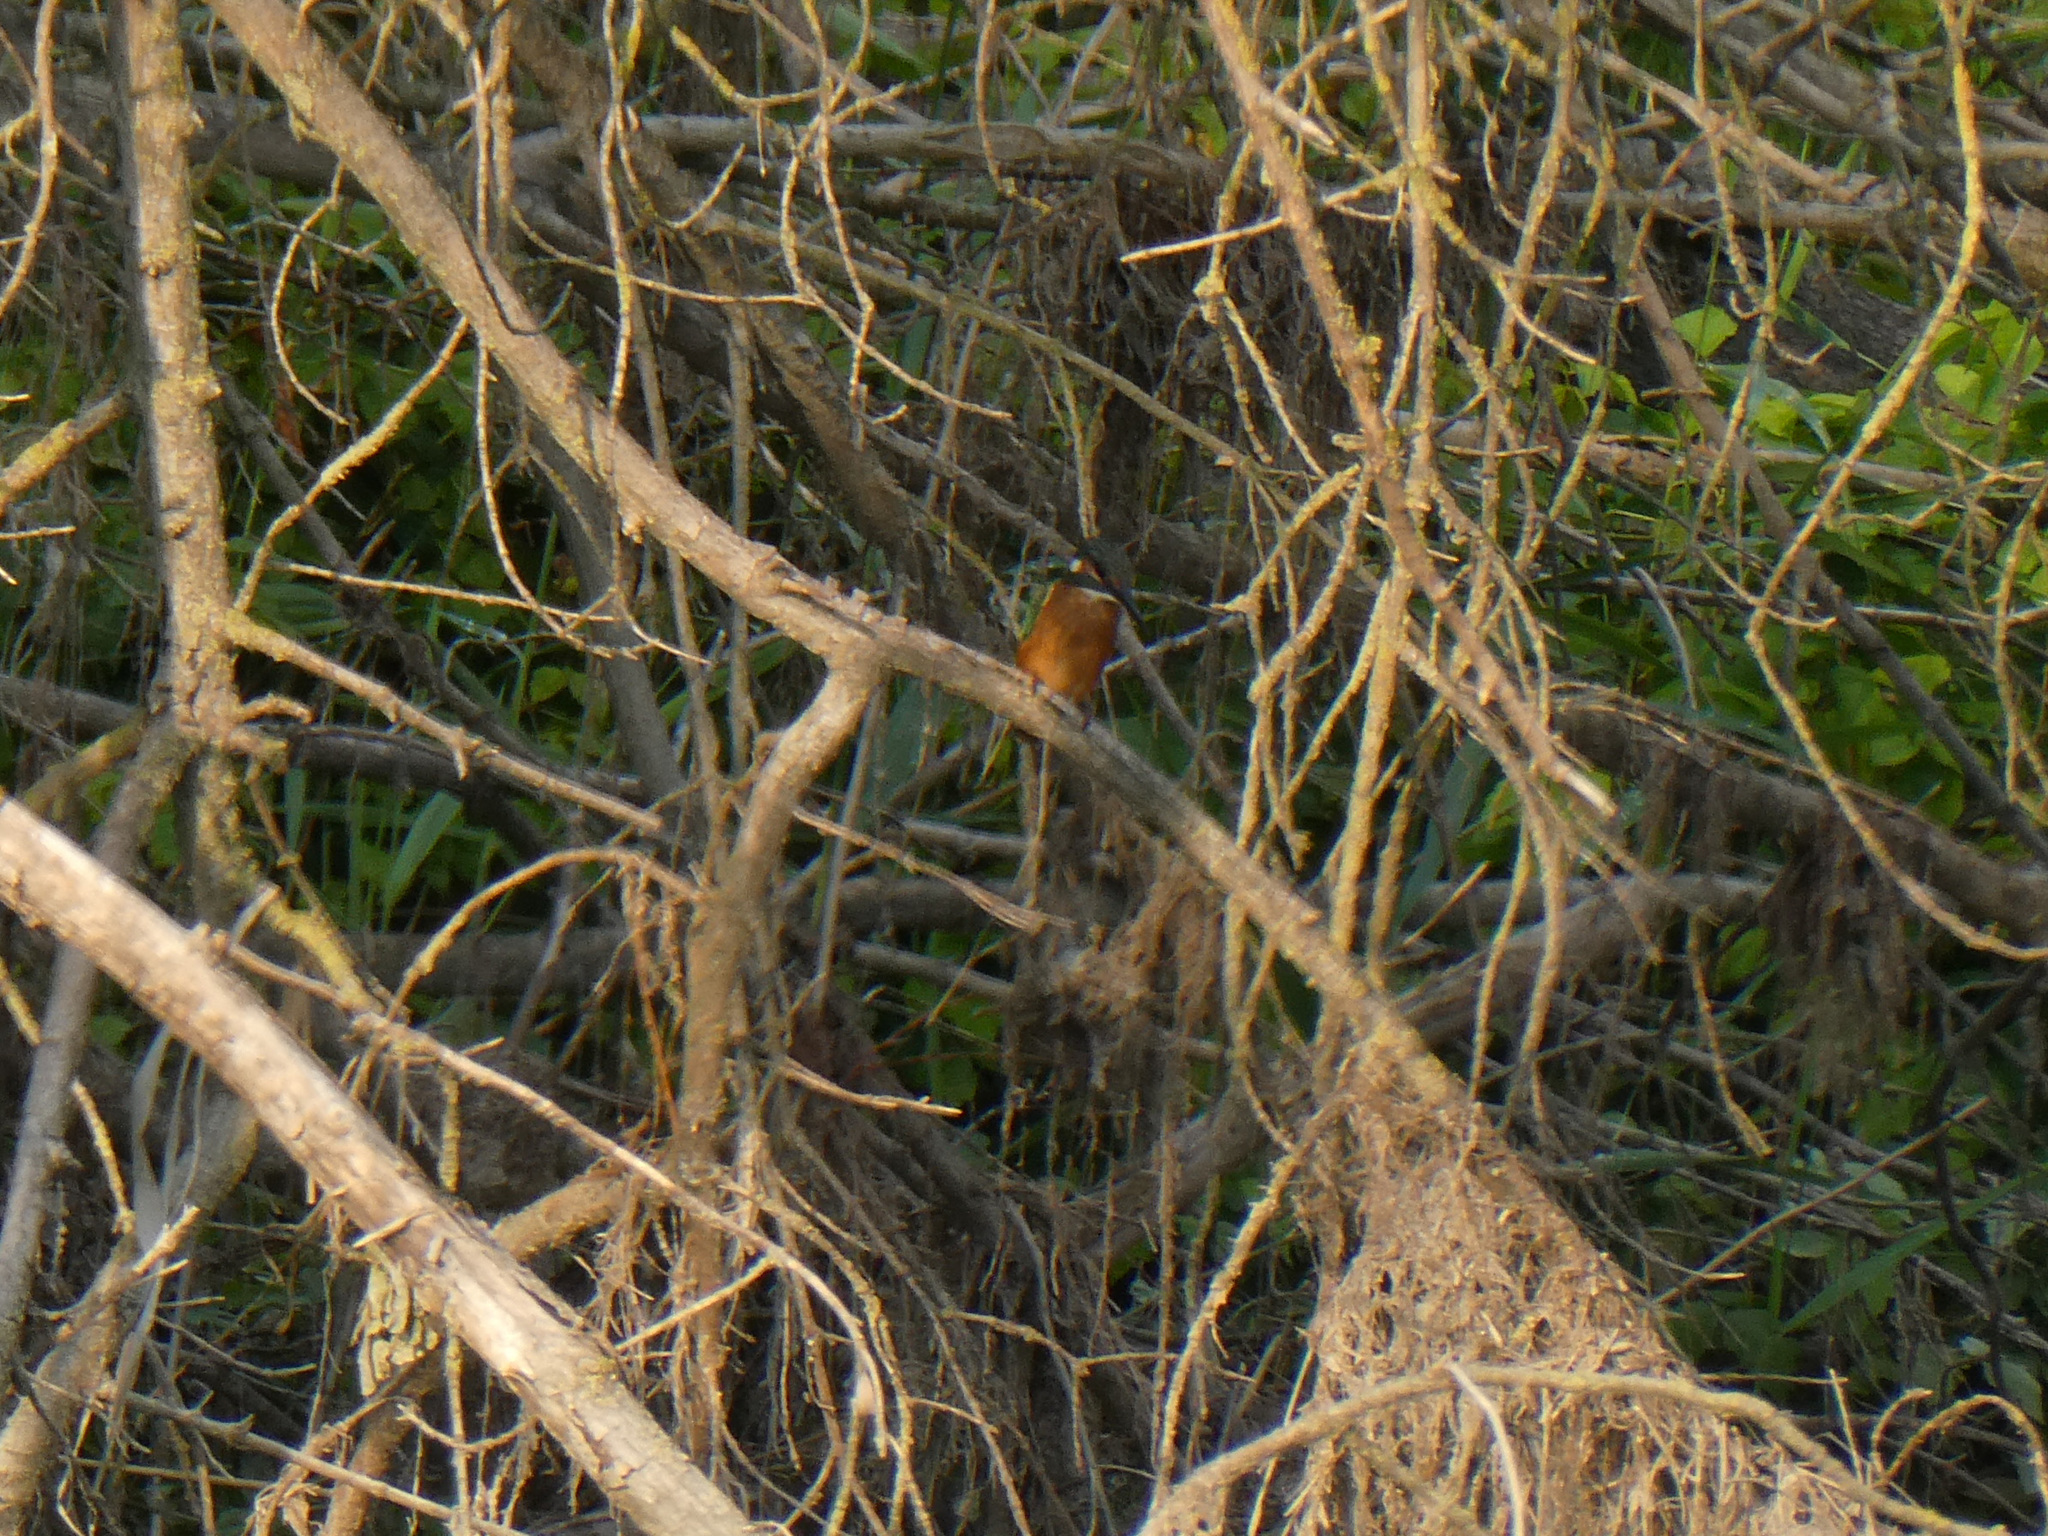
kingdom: Animalia
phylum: Chordata
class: Aves
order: Coraciiformes
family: Alcedinidae
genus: Alcedo
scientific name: Alcedo atthis
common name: Common kingfisher
